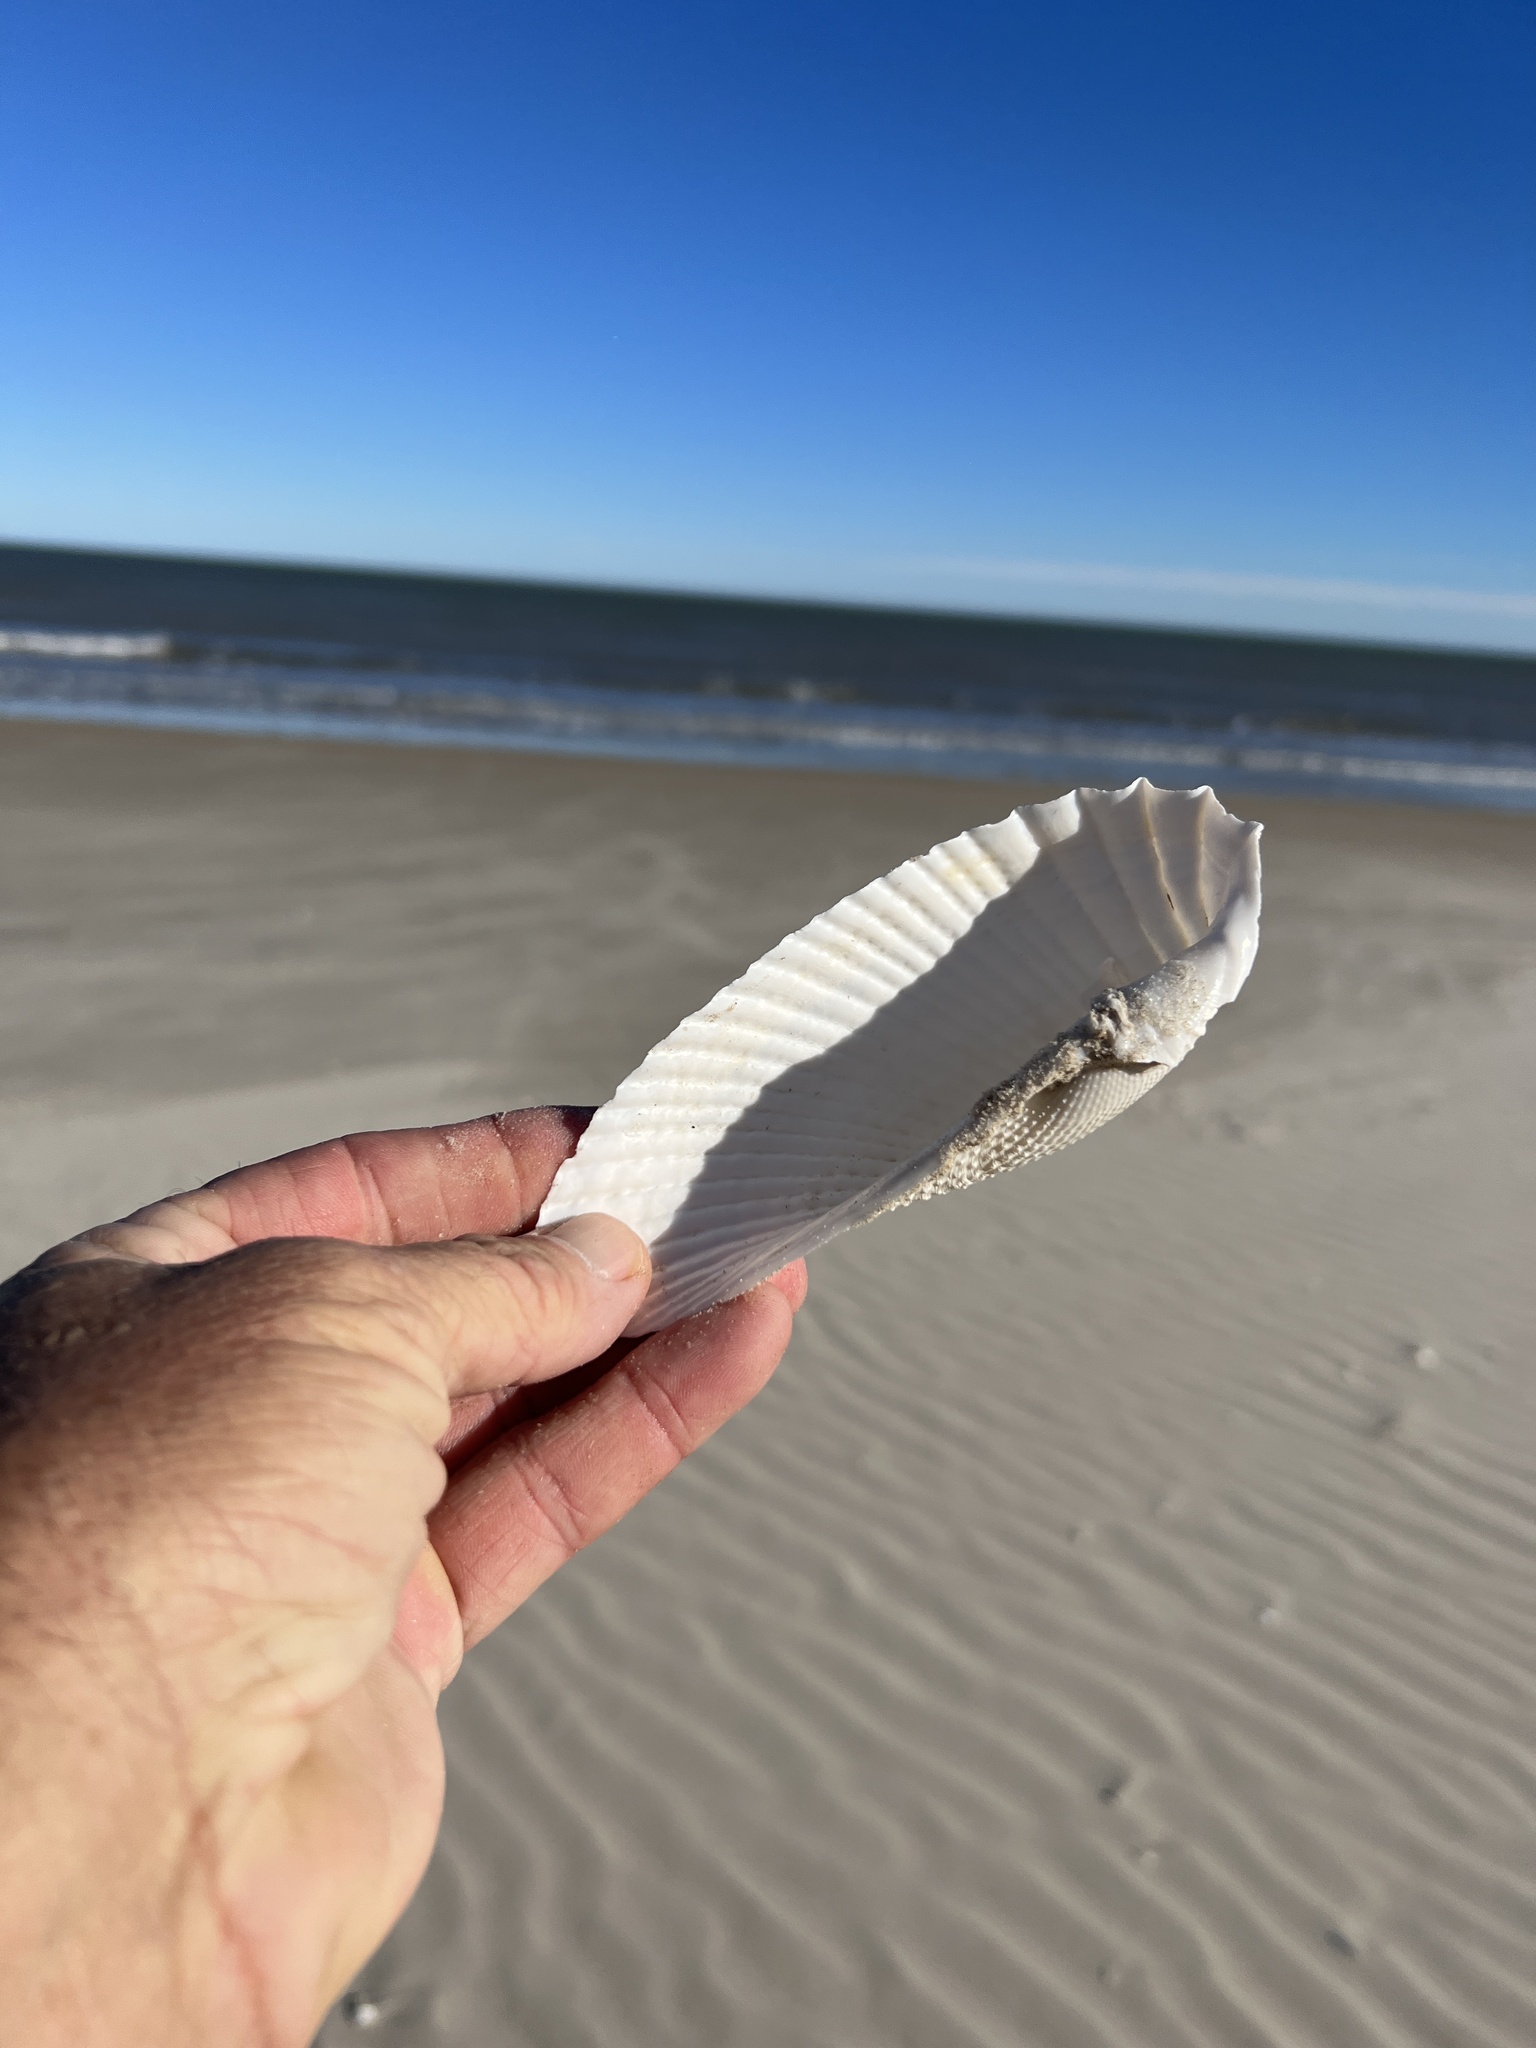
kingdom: Animalia
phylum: Mollusca
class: Bivalvia
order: Myida
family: Pholadidae
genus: Cyrtopleura
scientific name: Cyrtopleura costata
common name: Angel wing
